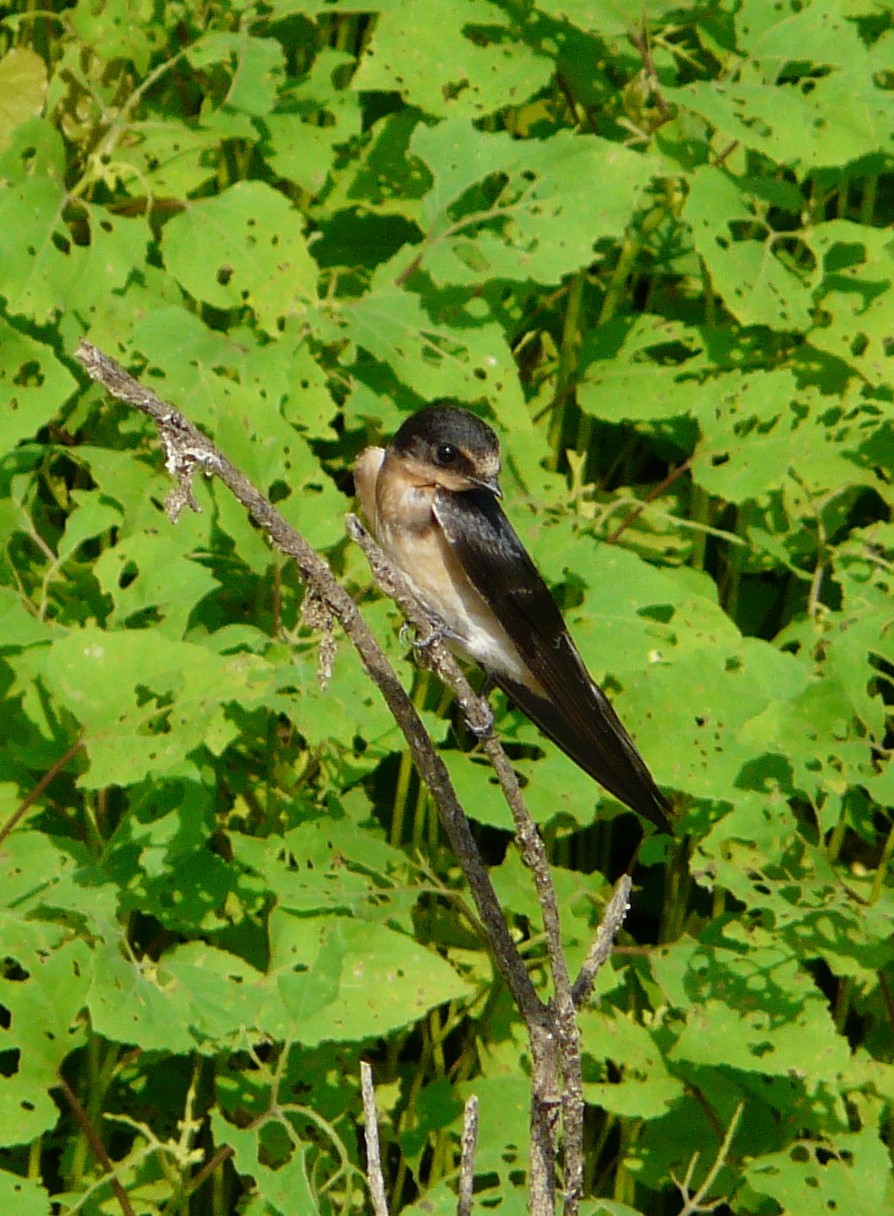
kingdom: Animalia
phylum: Chordata
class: Aves
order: Passeriformes
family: Hirundinidae
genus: Hirundo
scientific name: Hirundo rustica
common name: Barn swallow
